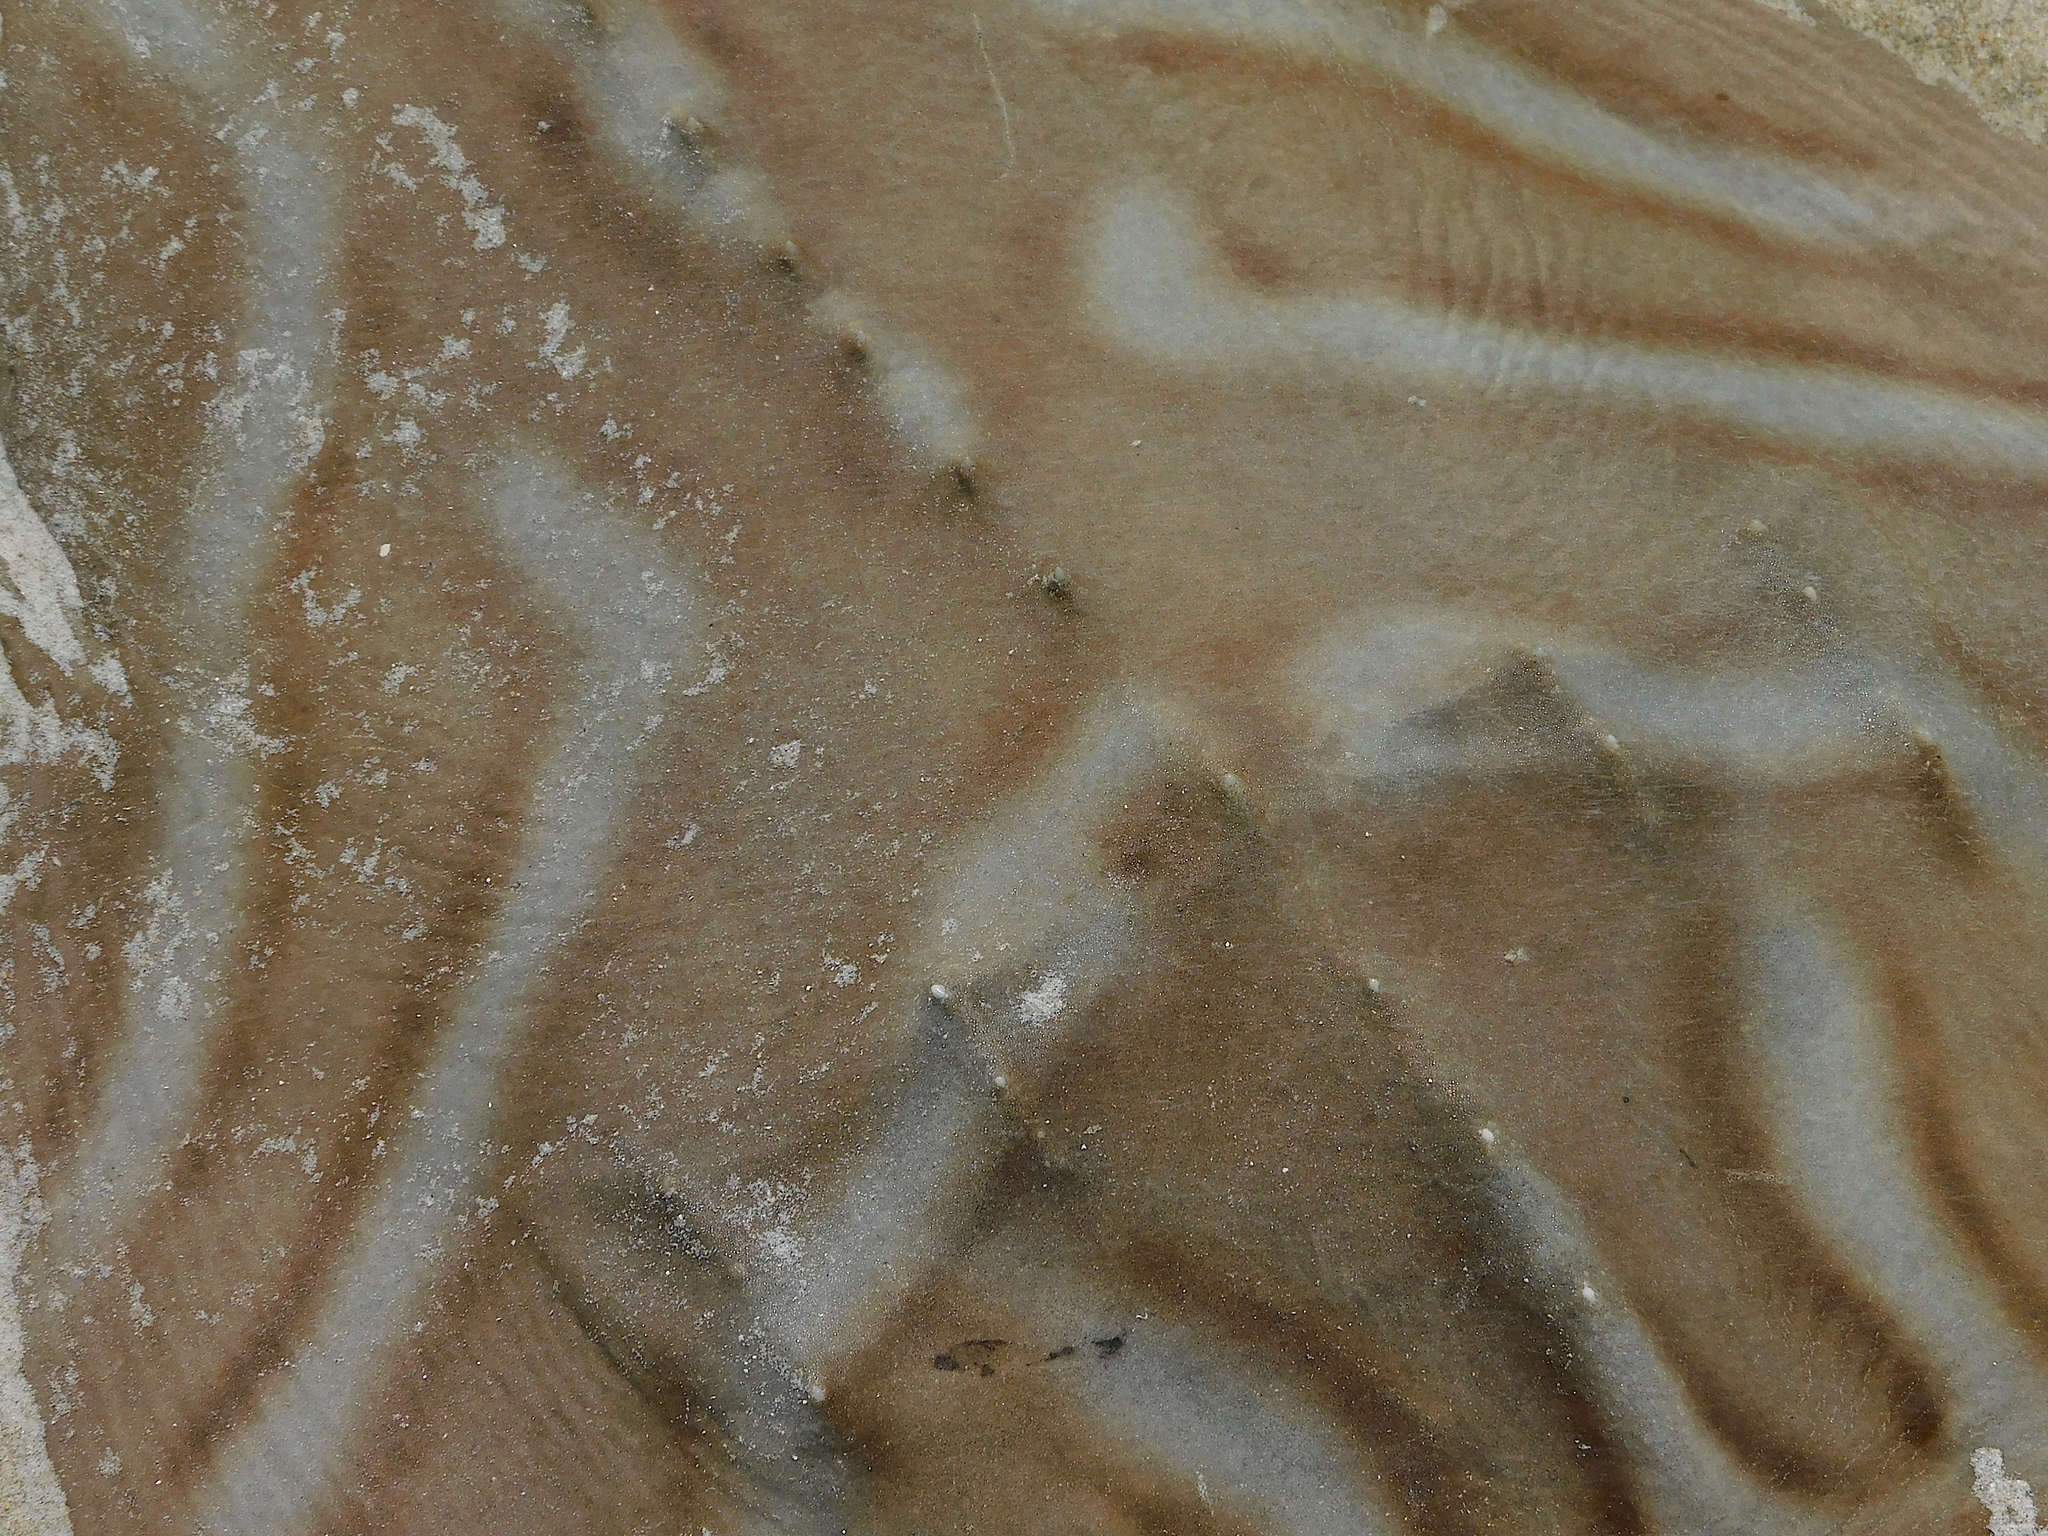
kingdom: Animalia
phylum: Chordata
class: Elasmobranchii
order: Rhinopristiformes
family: Rhinobatidae
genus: Trygonorrhina
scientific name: Trygonorrhina dumerilii
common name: Banjo shark
